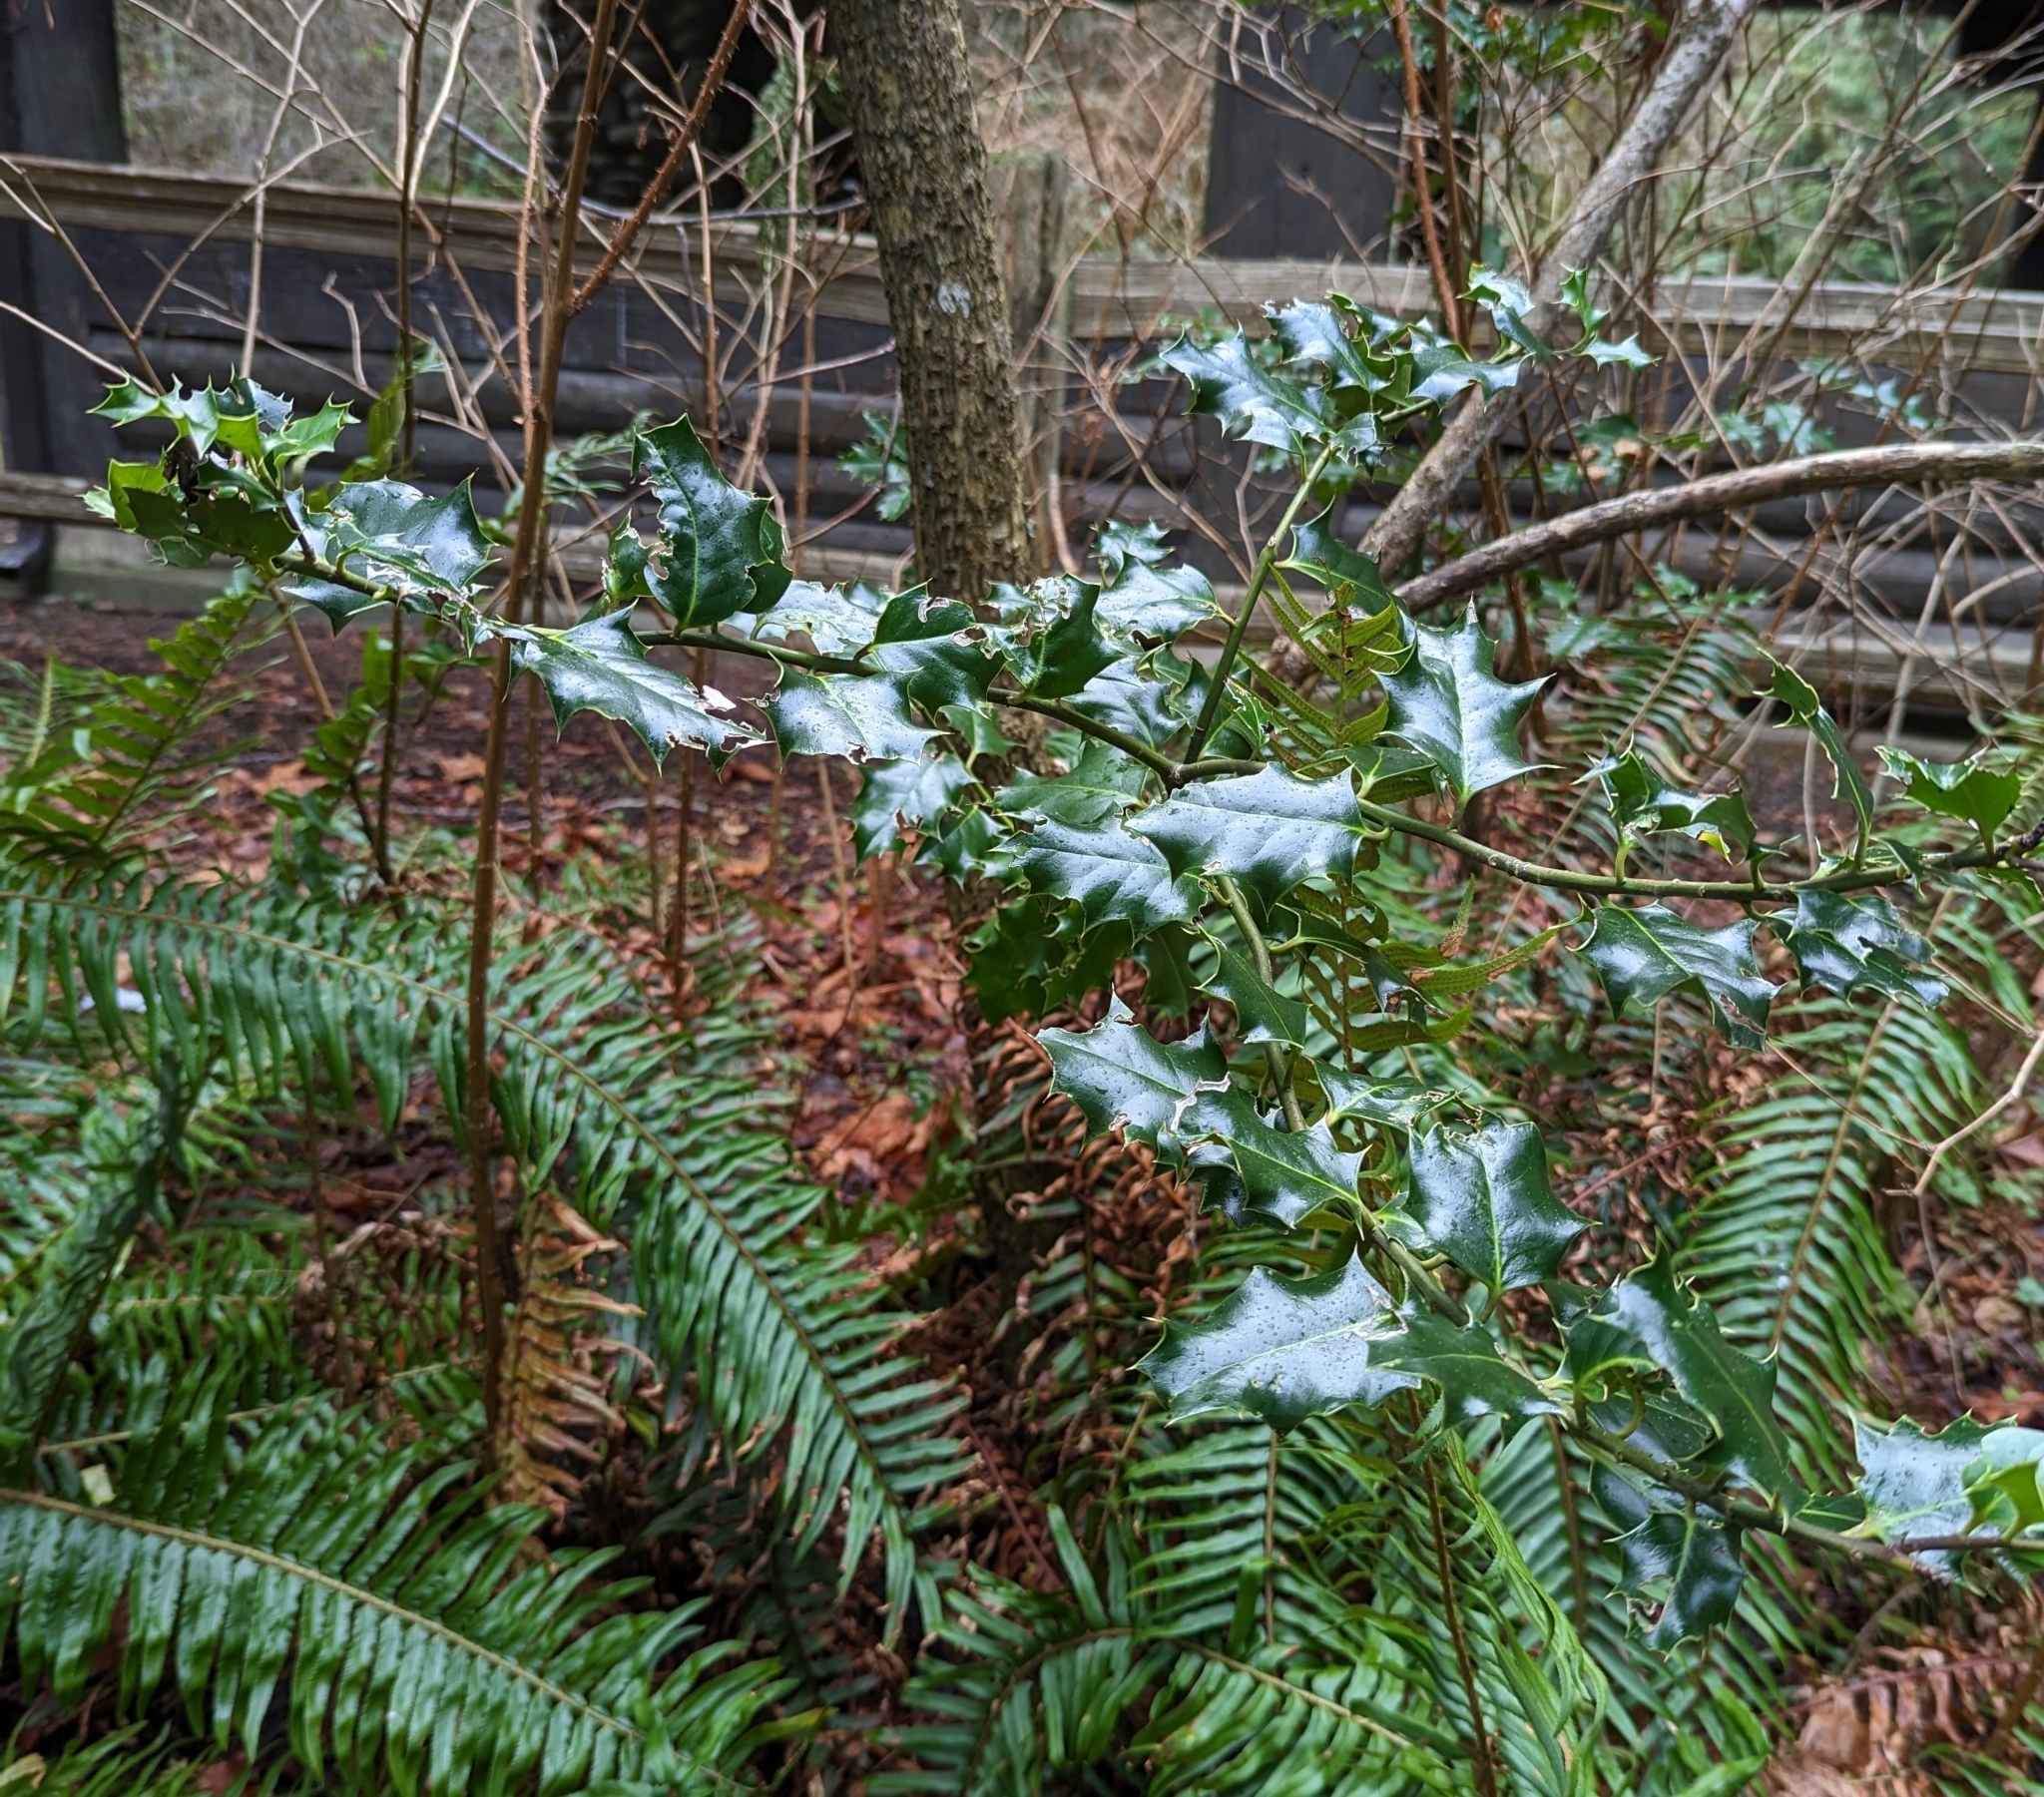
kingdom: Plantae
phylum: Tracheophyta
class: Magnoliopsida
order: Aquifoliales
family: Aquifoliaceae
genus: Ilex
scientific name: Ilex aquifolium
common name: English holly
